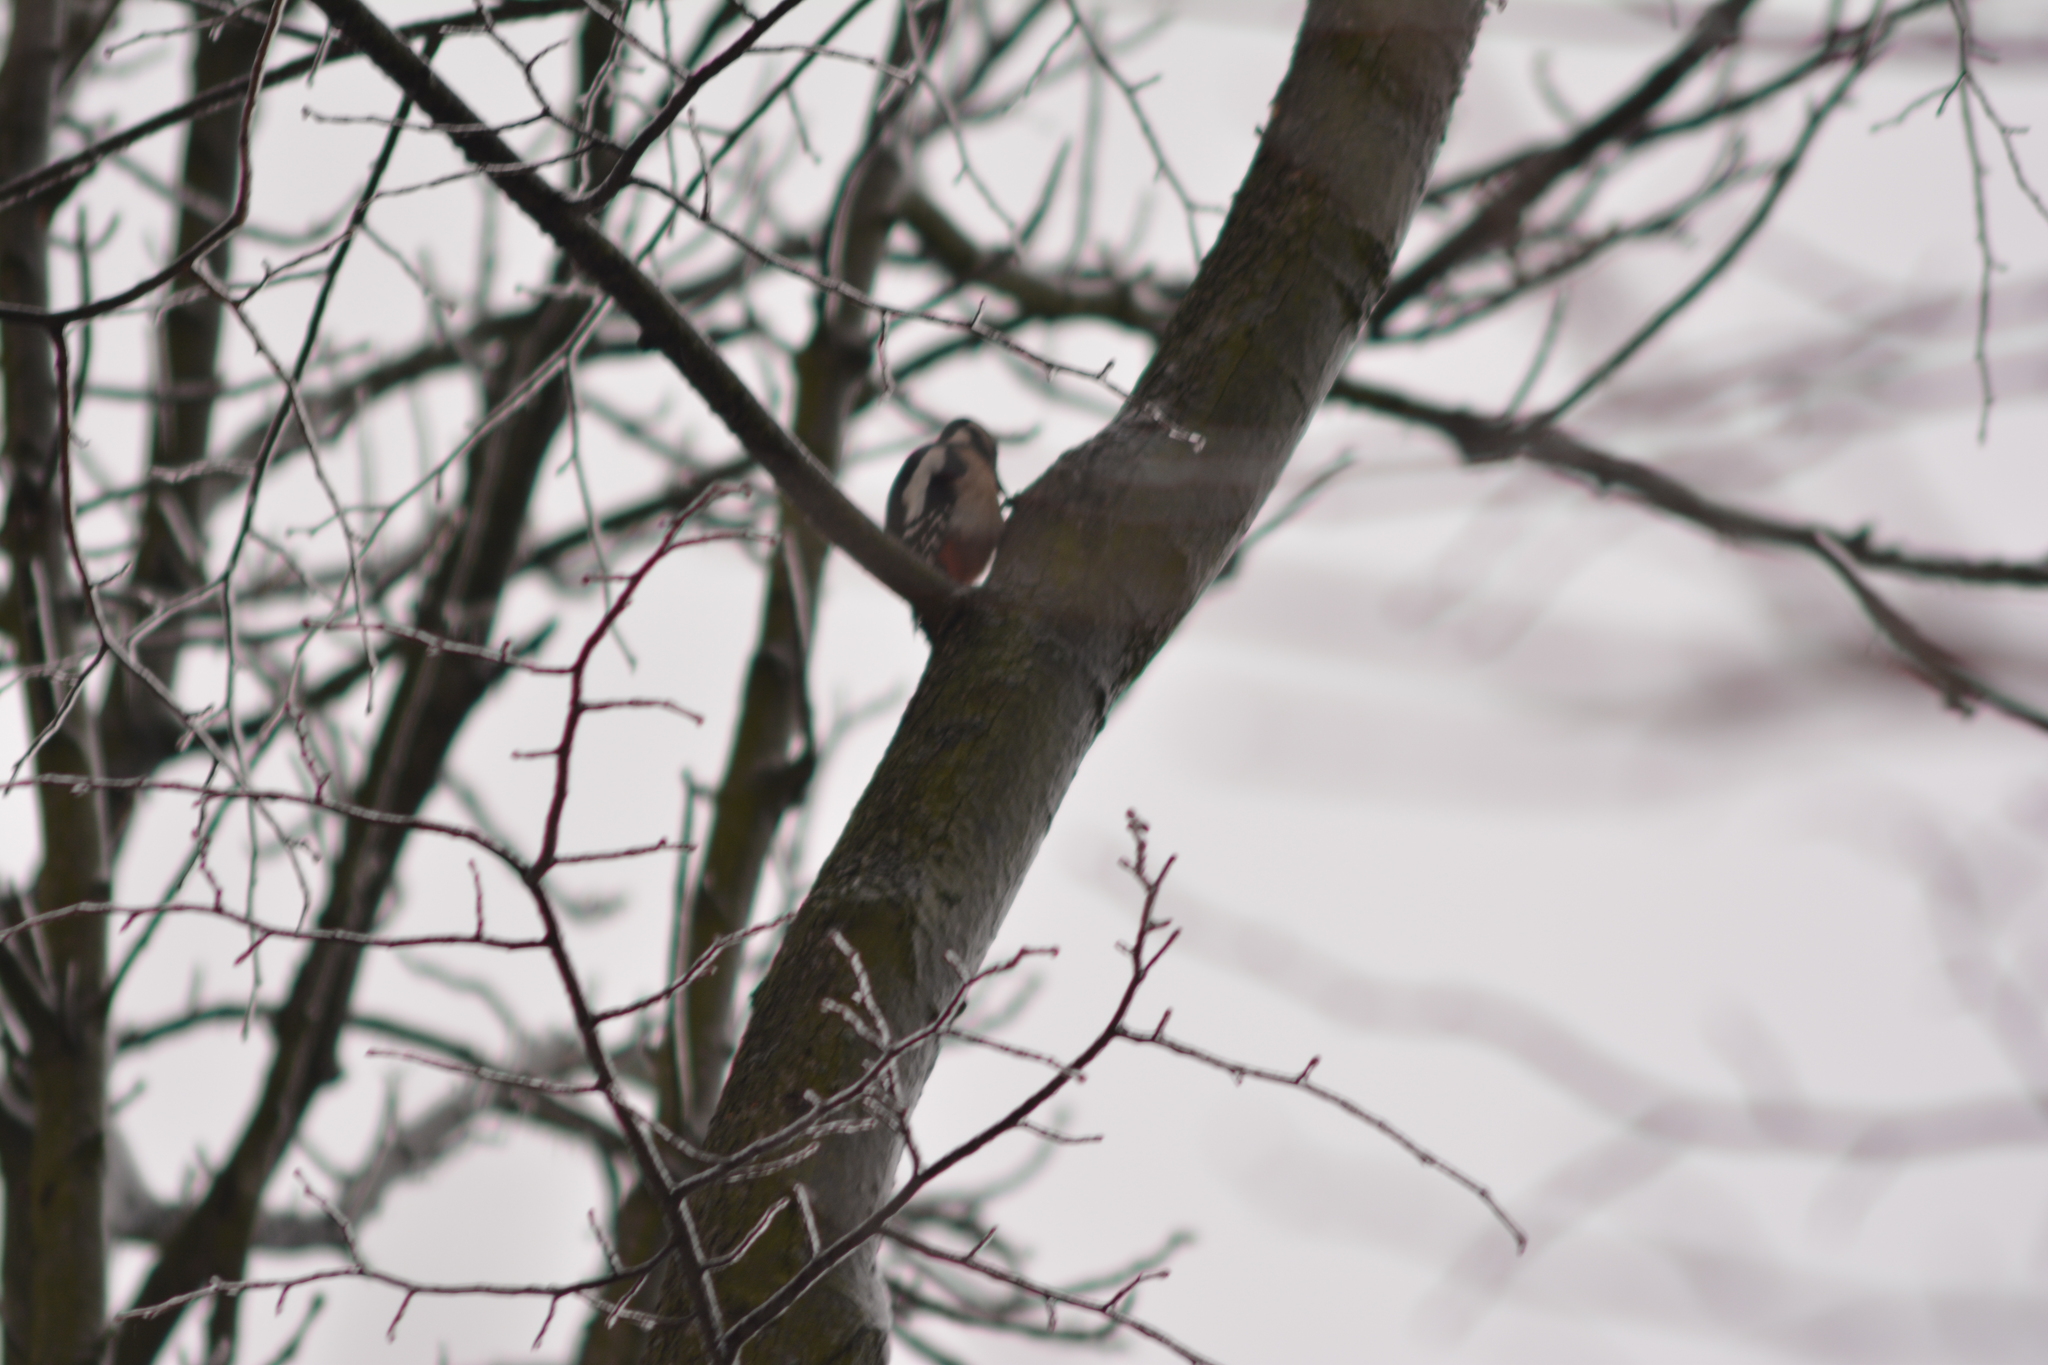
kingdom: Animalia
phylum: Chordata
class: Aves
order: Piciformes
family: Picidae
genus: Dendrocopos
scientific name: Dendrocopos major
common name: Great spotted woodpecker
